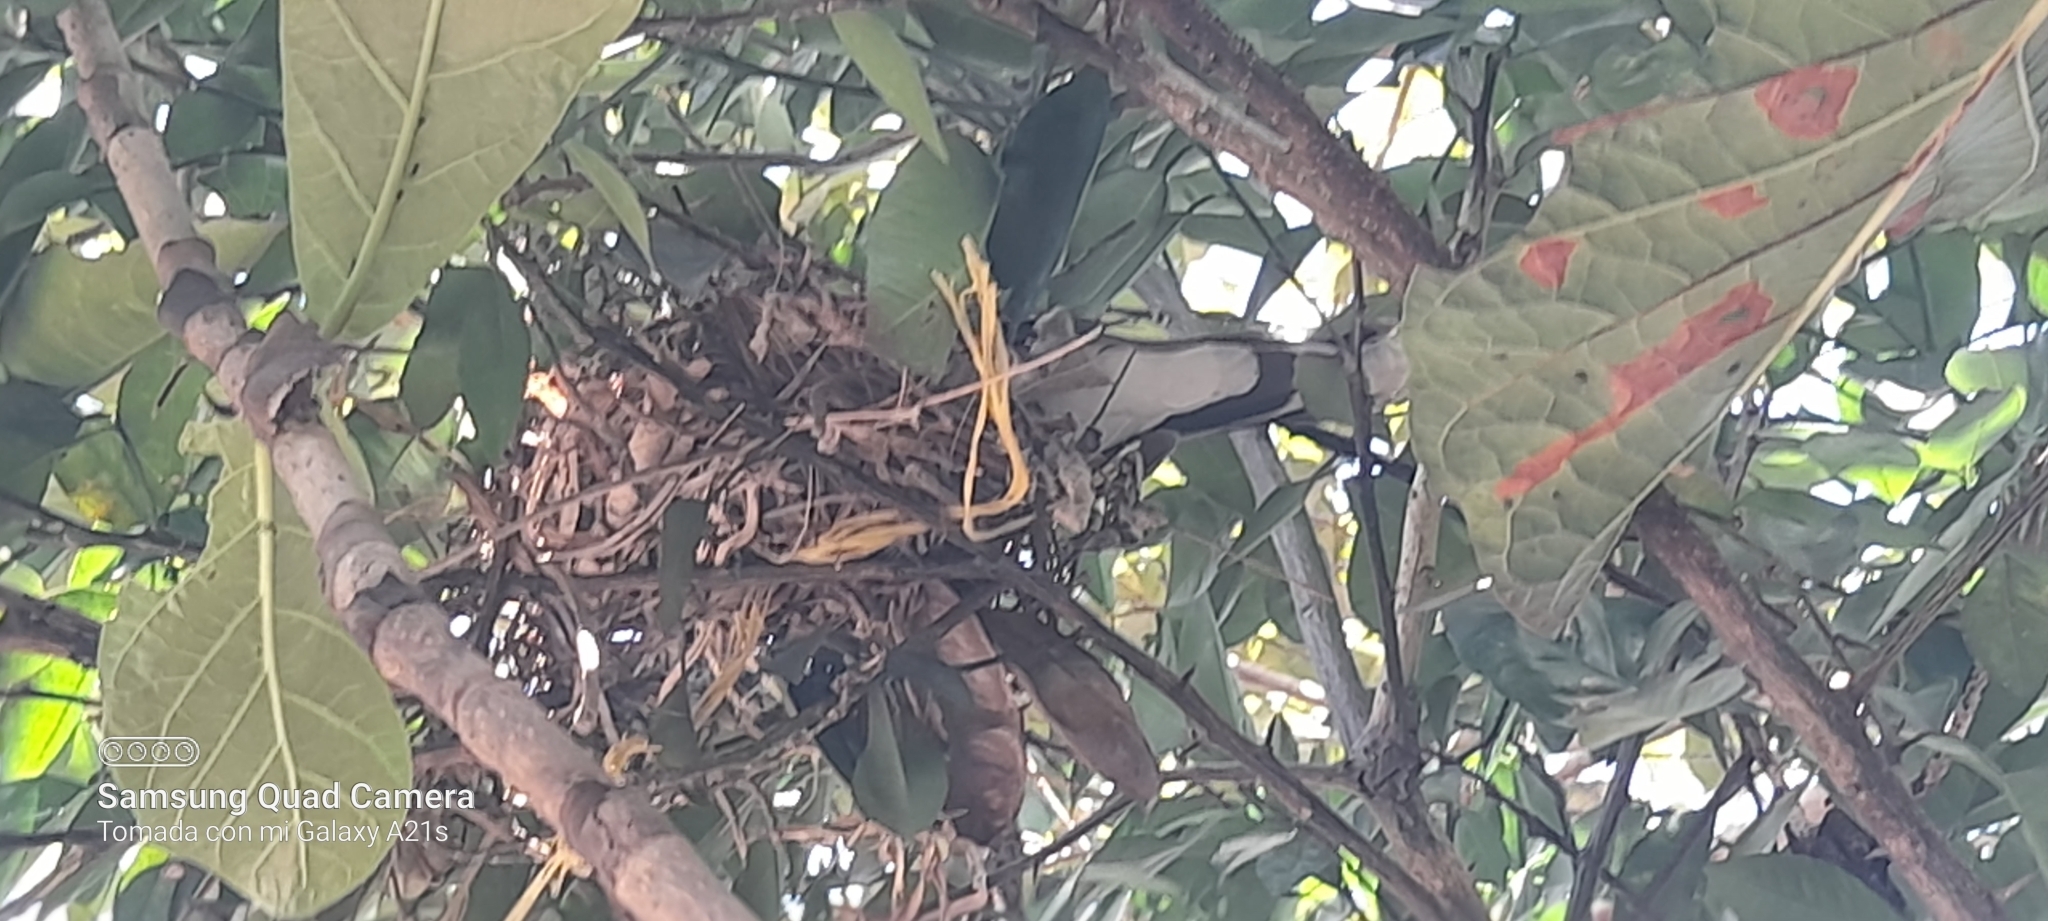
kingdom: Animalia
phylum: Chordata
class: Aves
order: Columbiformes
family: Columbidae
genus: Leptotila
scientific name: Leptotila verreauxi
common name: White-tipped dove
